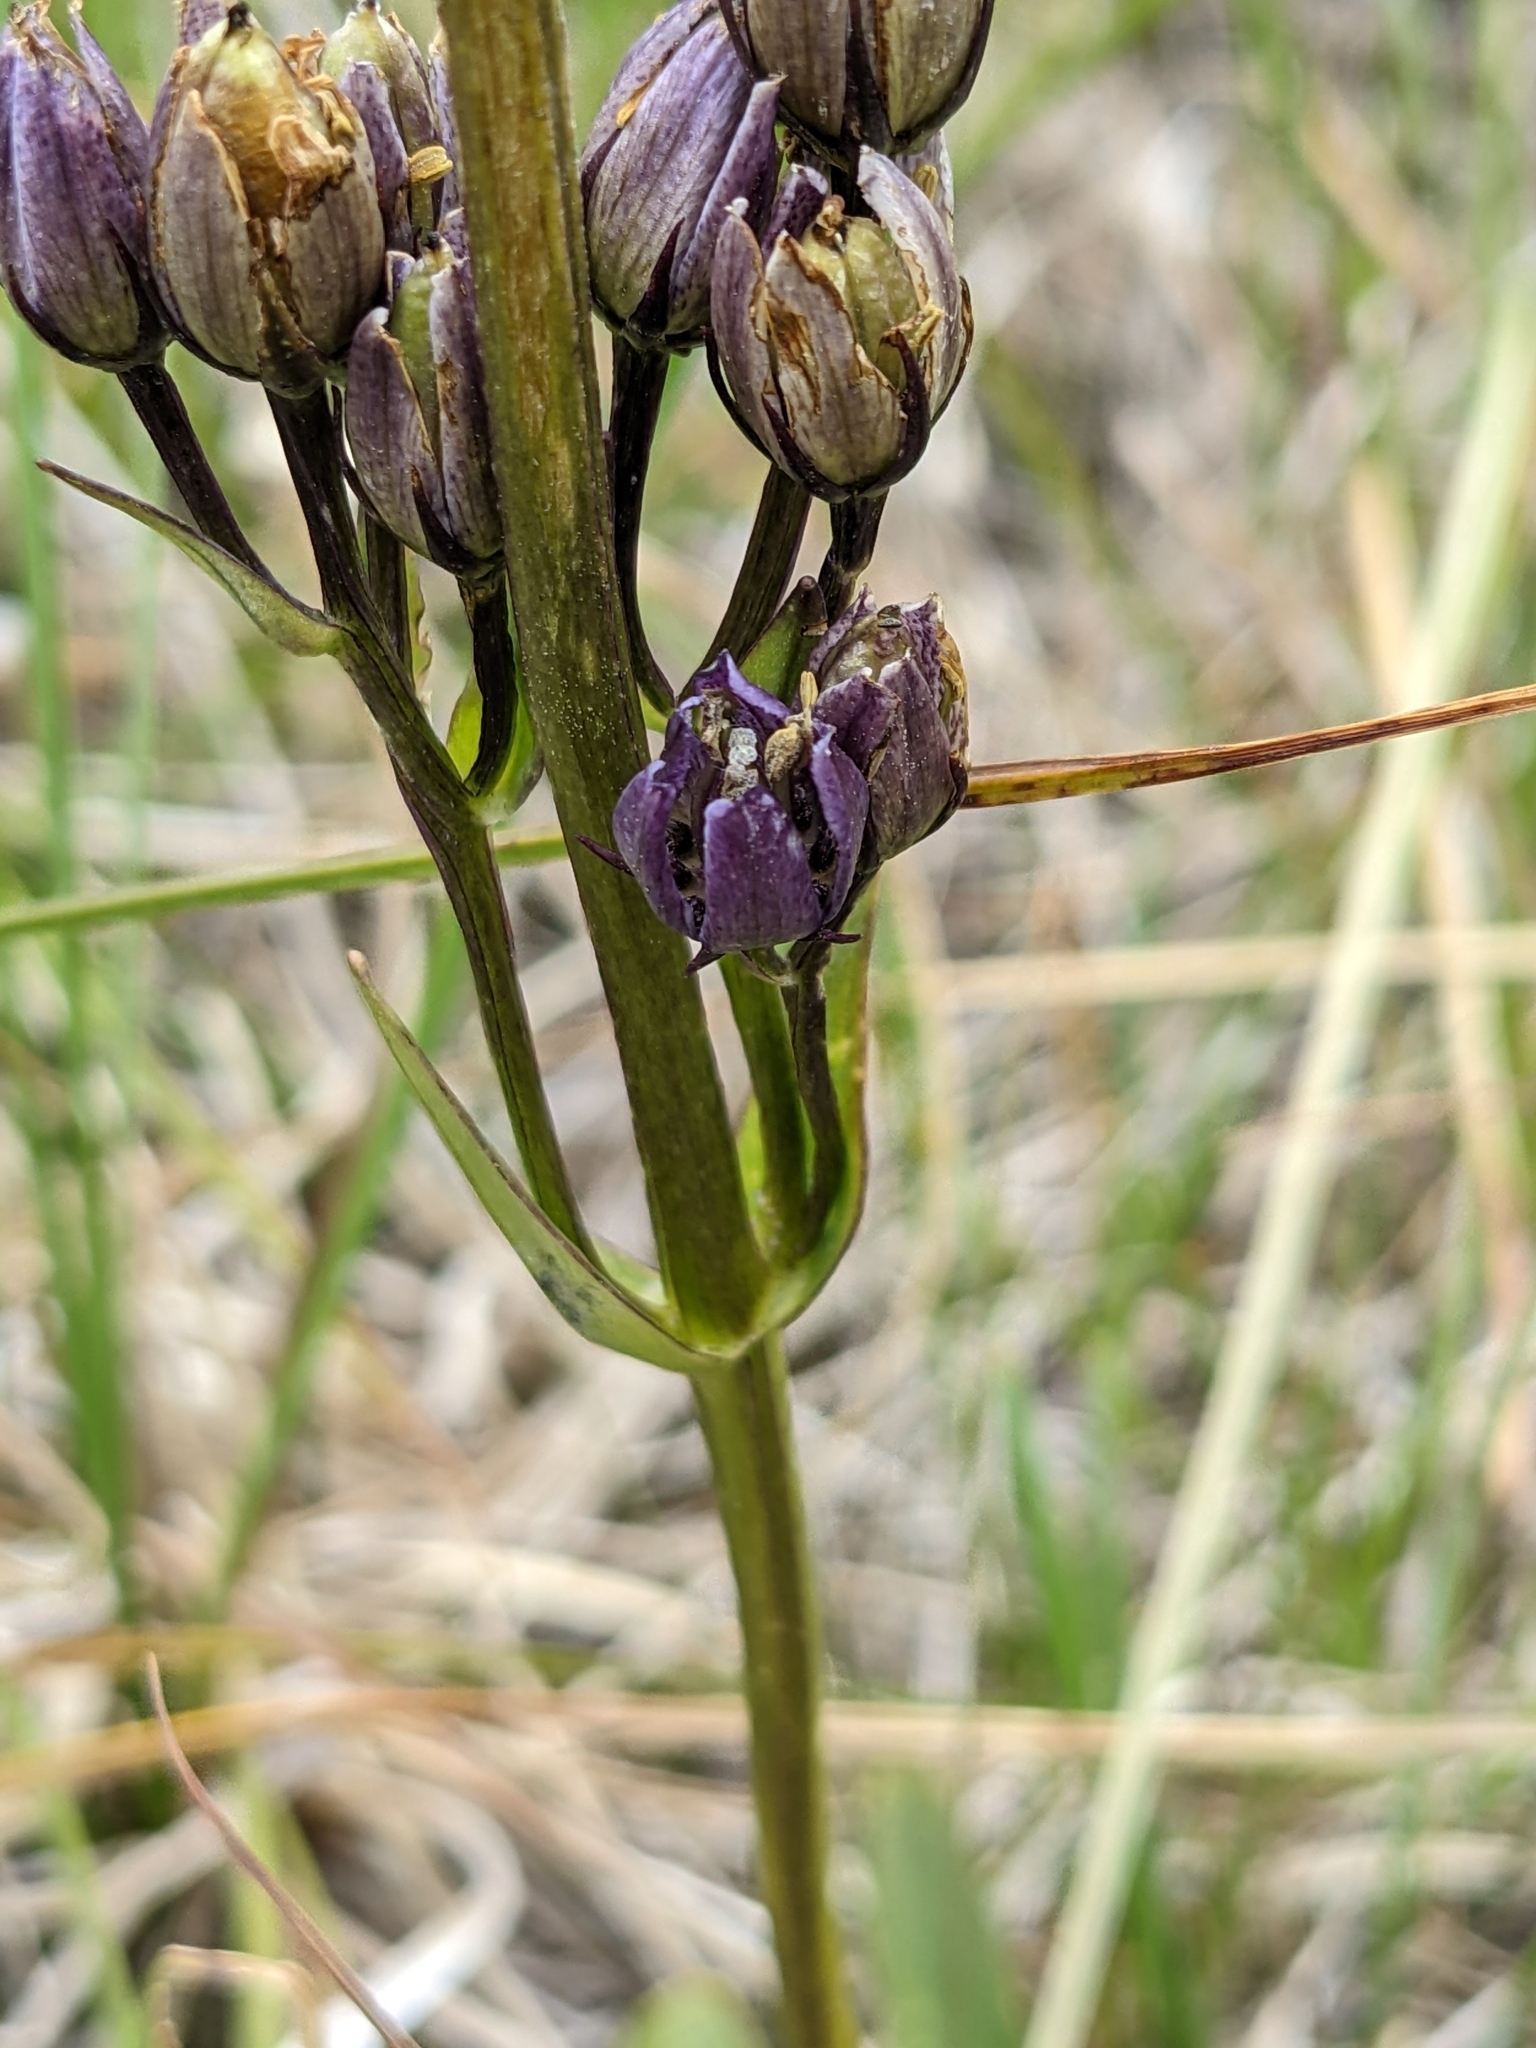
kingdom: Plantae
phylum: Tracheophyta
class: Magnoliopsida
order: Gentianales
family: Gentianaceae
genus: Swertia
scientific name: Swertia perennis
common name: Alpine bog swertia
